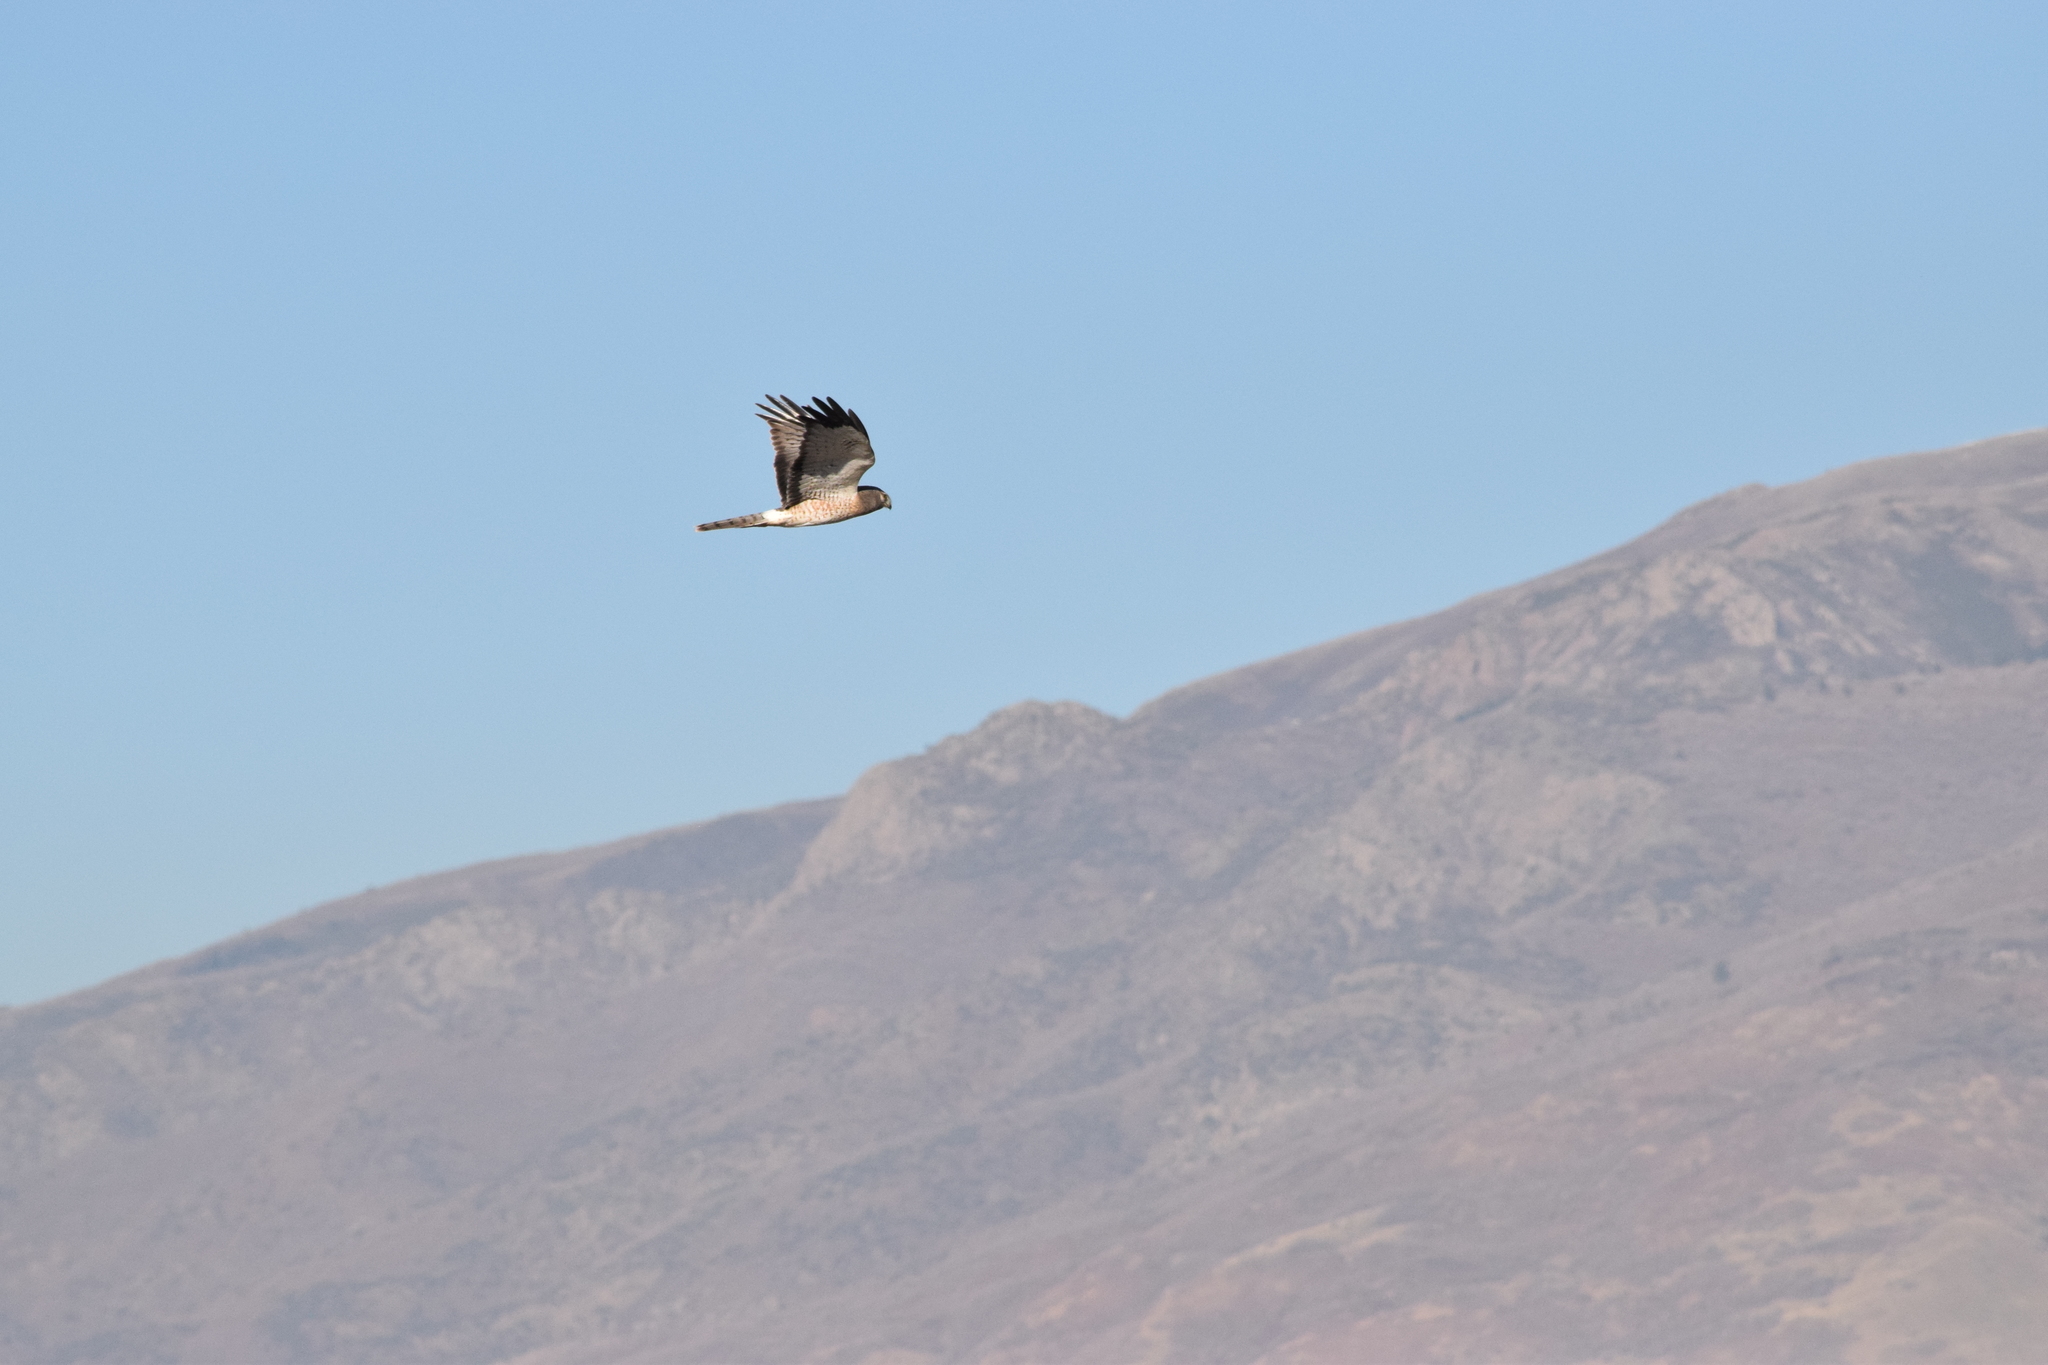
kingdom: Animalia
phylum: Chordata
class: Aves
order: Accipitriformes
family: Accipitridae
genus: Circus
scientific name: Circus cyaneus
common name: Hen harrier
